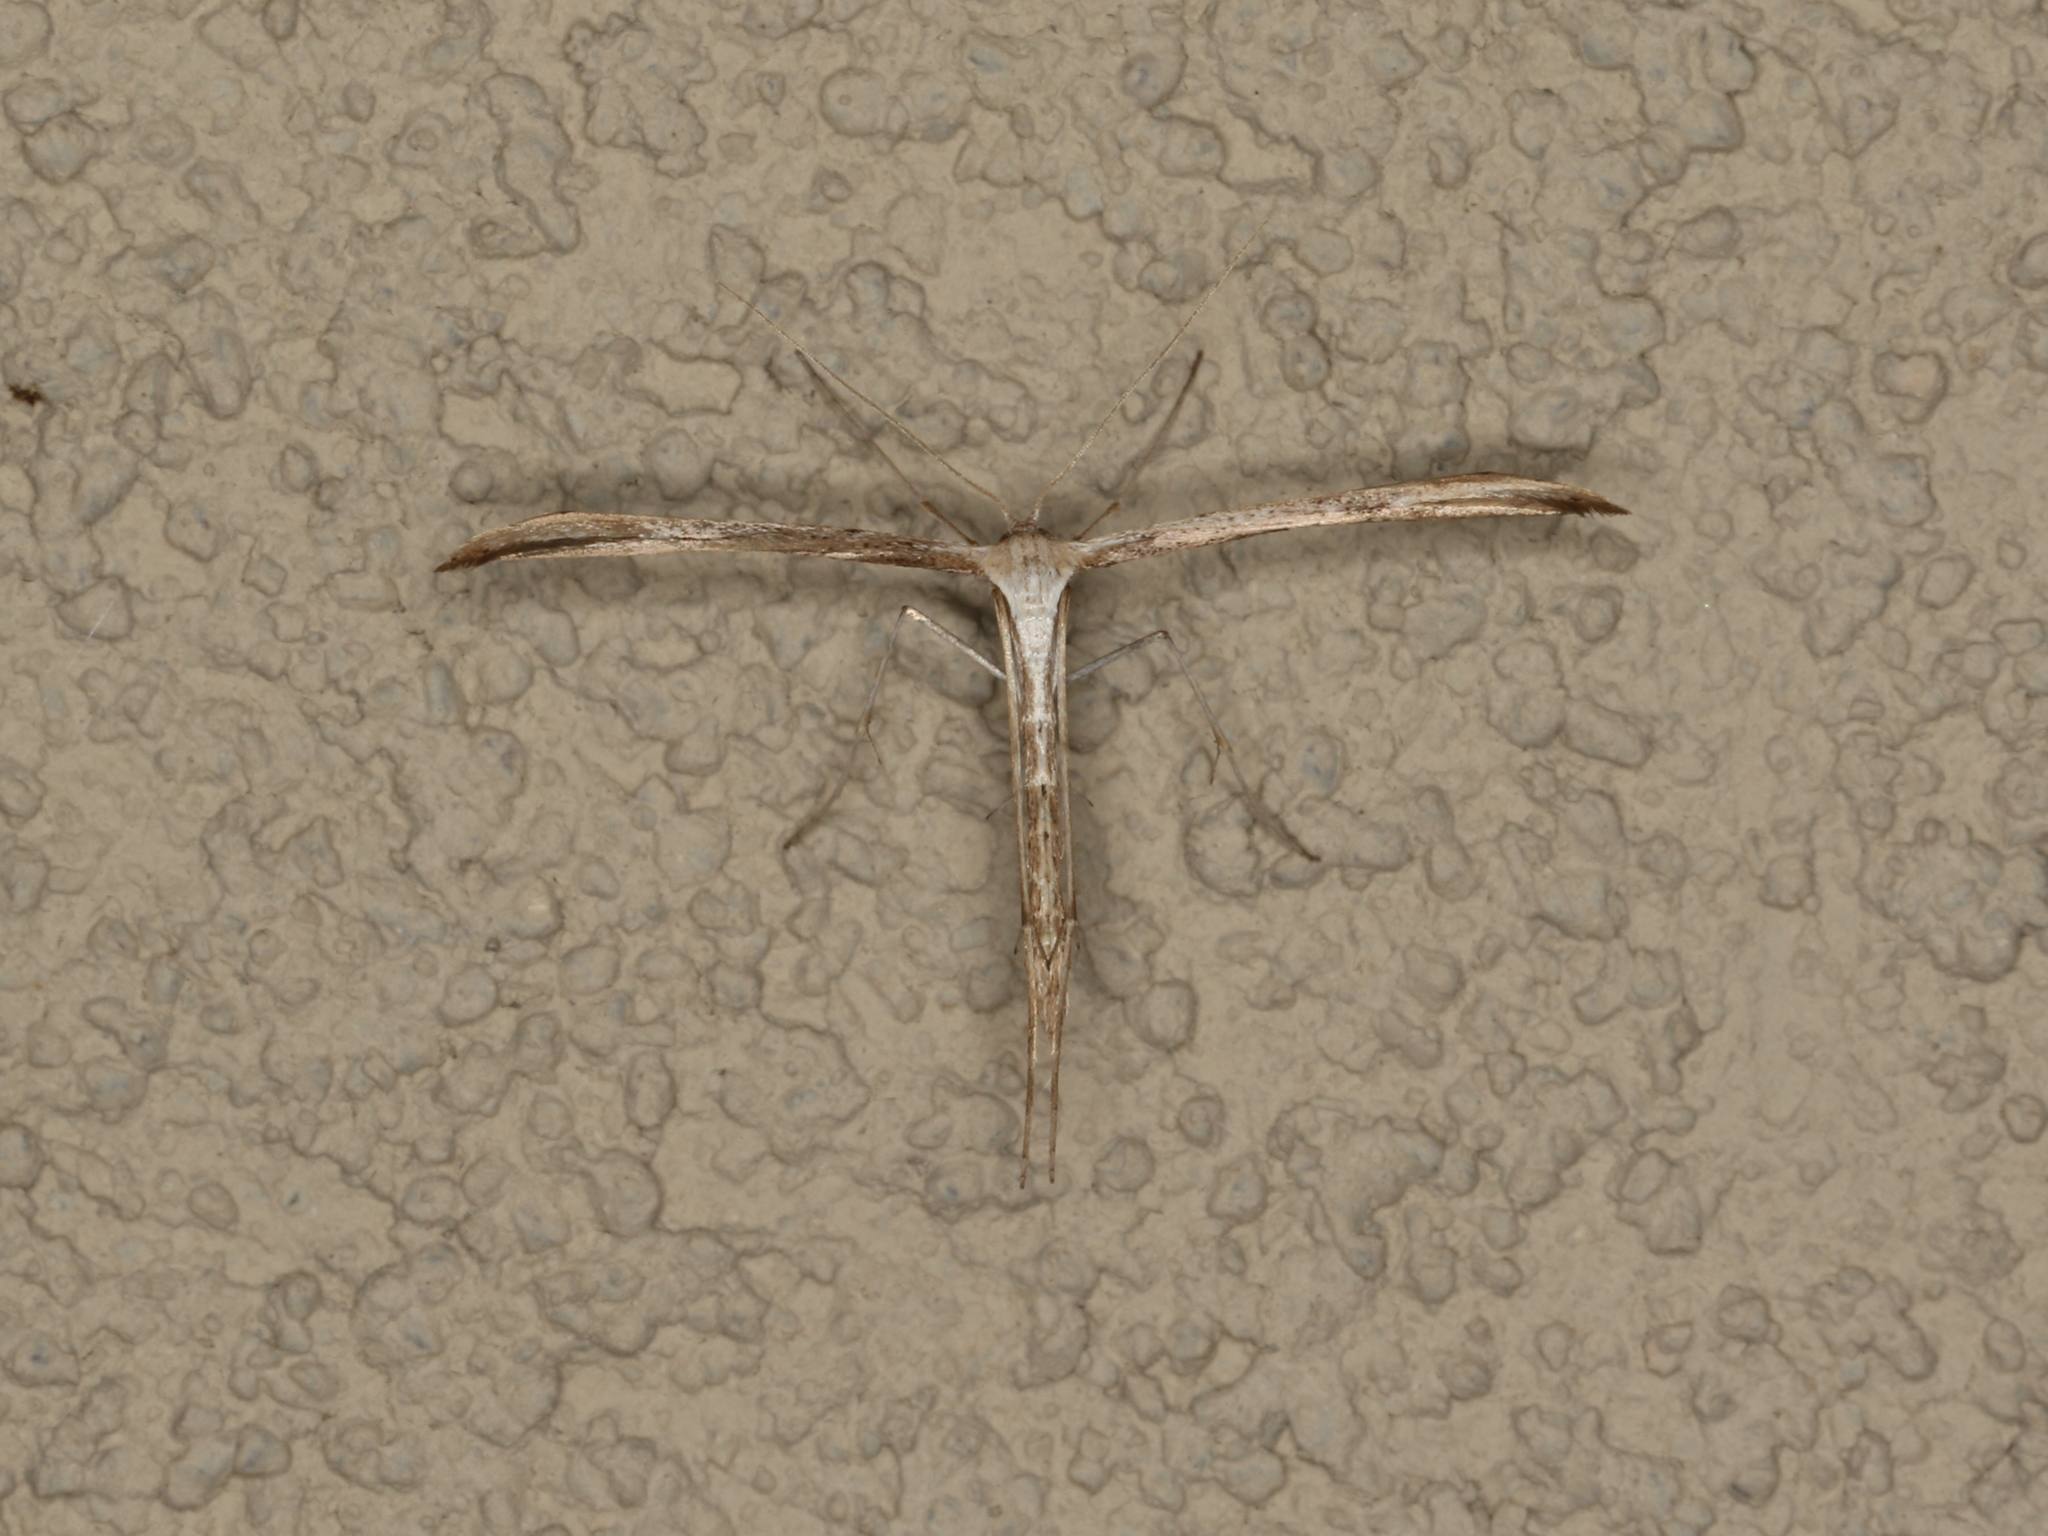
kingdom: Animalia
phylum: Arthropoda
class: Insecta
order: Lepidoptera
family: Pterophoridae
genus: Emmelina
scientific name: Emmelina monodactyla
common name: Common plume
